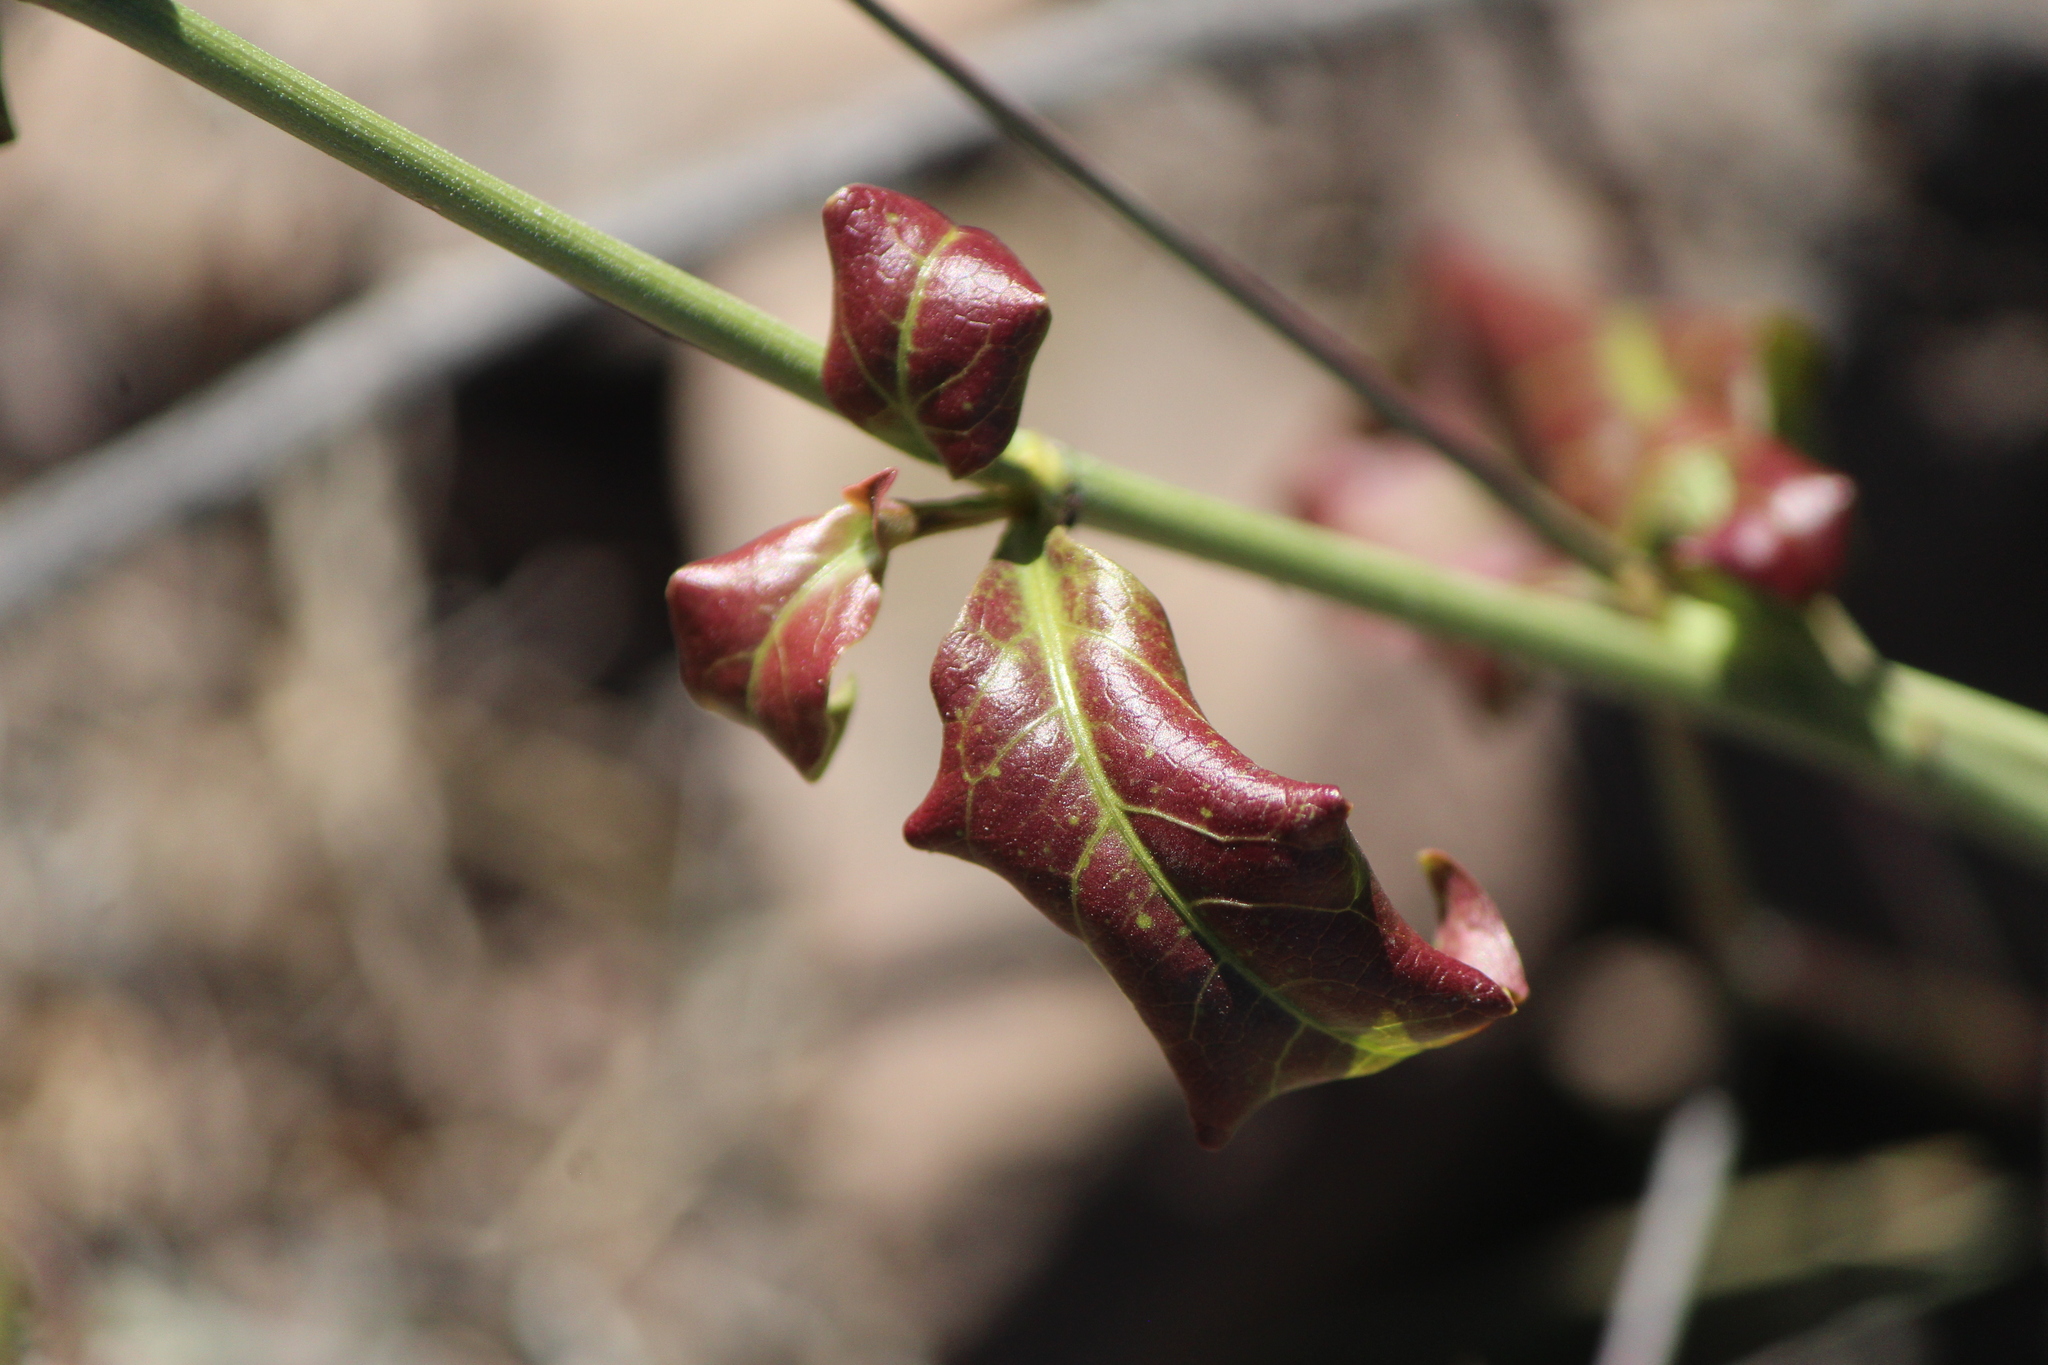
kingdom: Plantae
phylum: Tracheophyta
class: Magnoliopsida
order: Caryophyllales
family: Plumbaginaceae
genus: Plumbago
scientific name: Plumbago zeylanica
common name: Doctorbush
